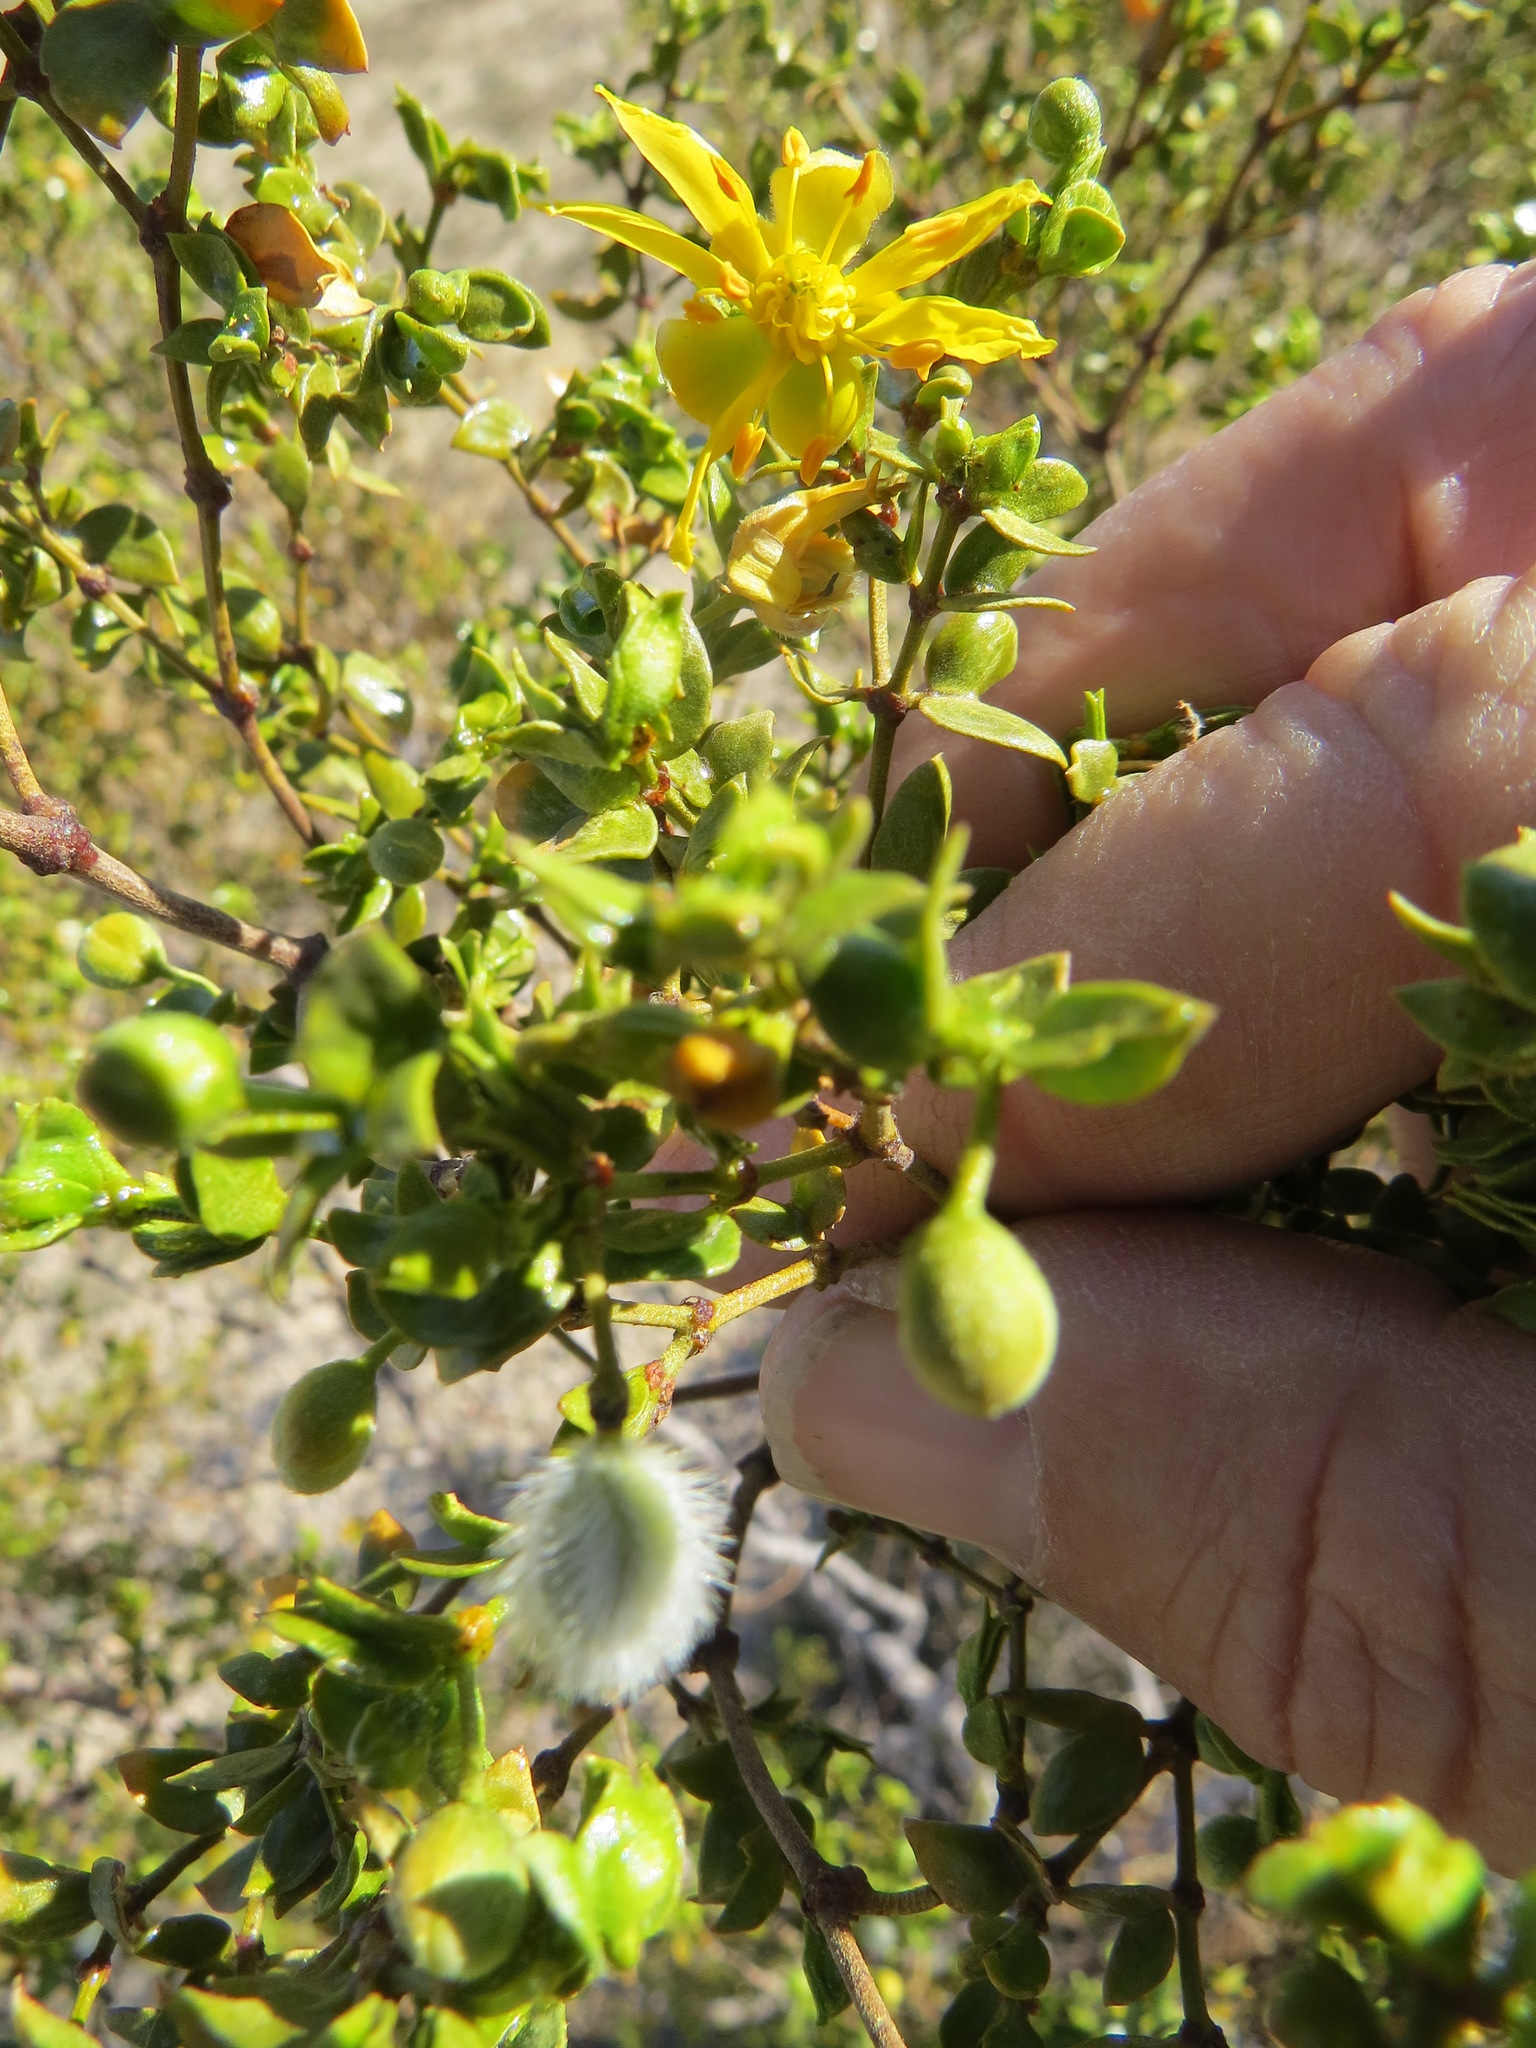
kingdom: Plantae
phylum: Tracheophyta
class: Magnoliopsida
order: Zygophyllales
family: Zygophyllaceae
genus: Larrea
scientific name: Larrea tridentata
